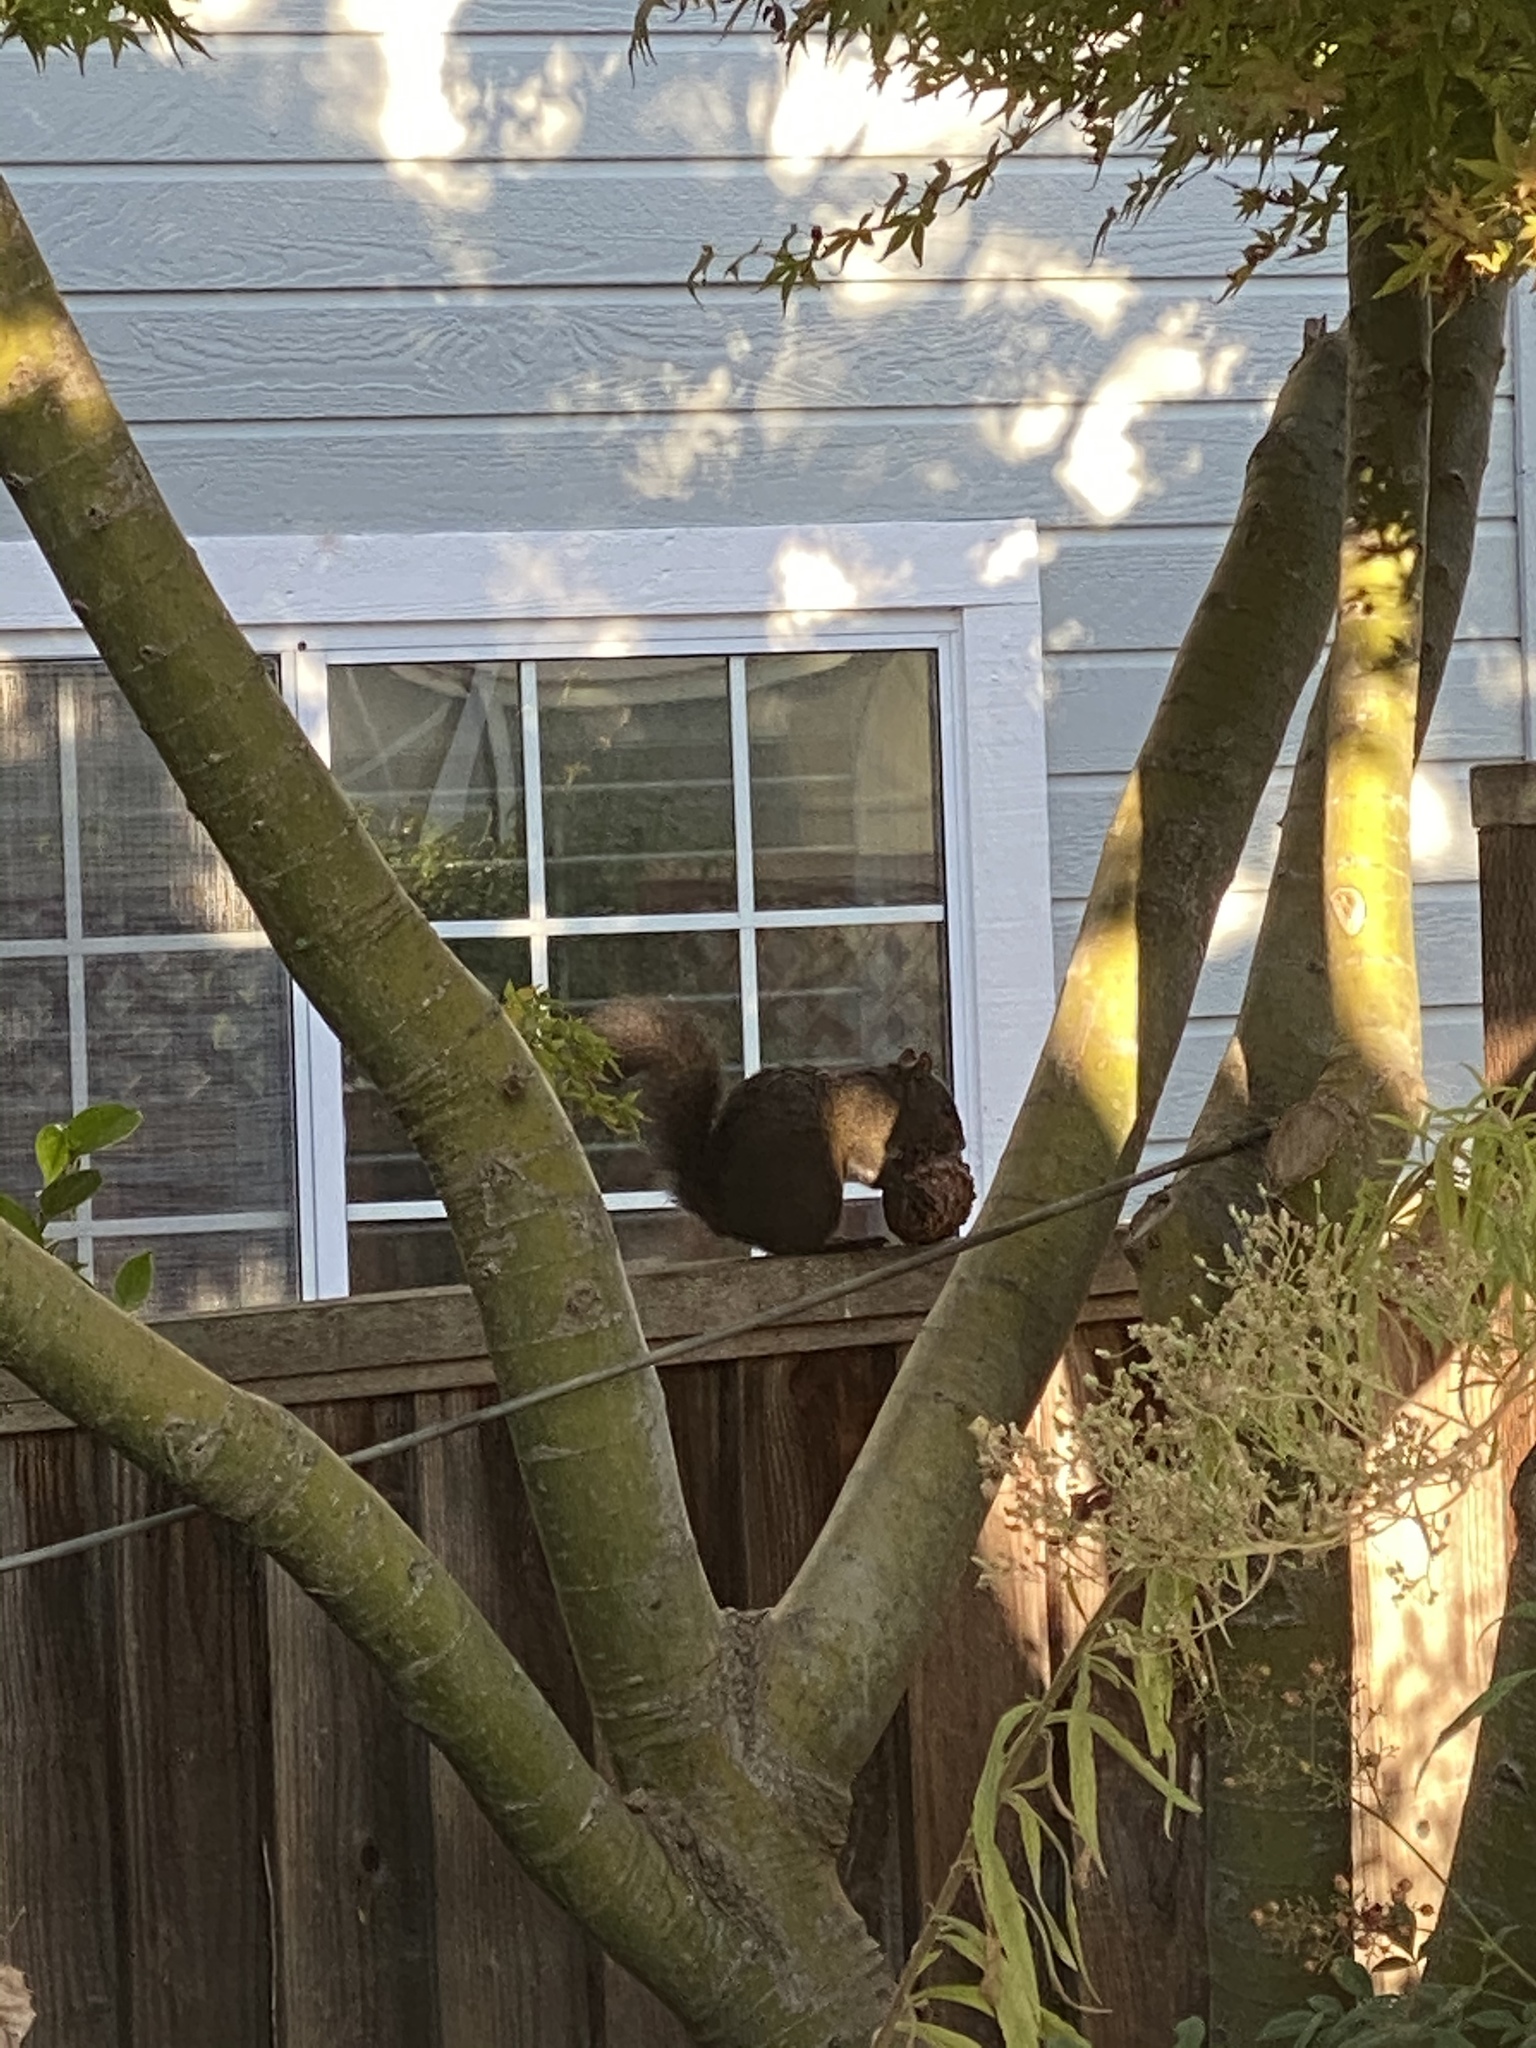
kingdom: Animalia
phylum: Chordata
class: Mammalia
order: Rodentia
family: Sciuridae
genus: Sciurus
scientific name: Sciurus carolinensis
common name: Eastern gray squirrel
